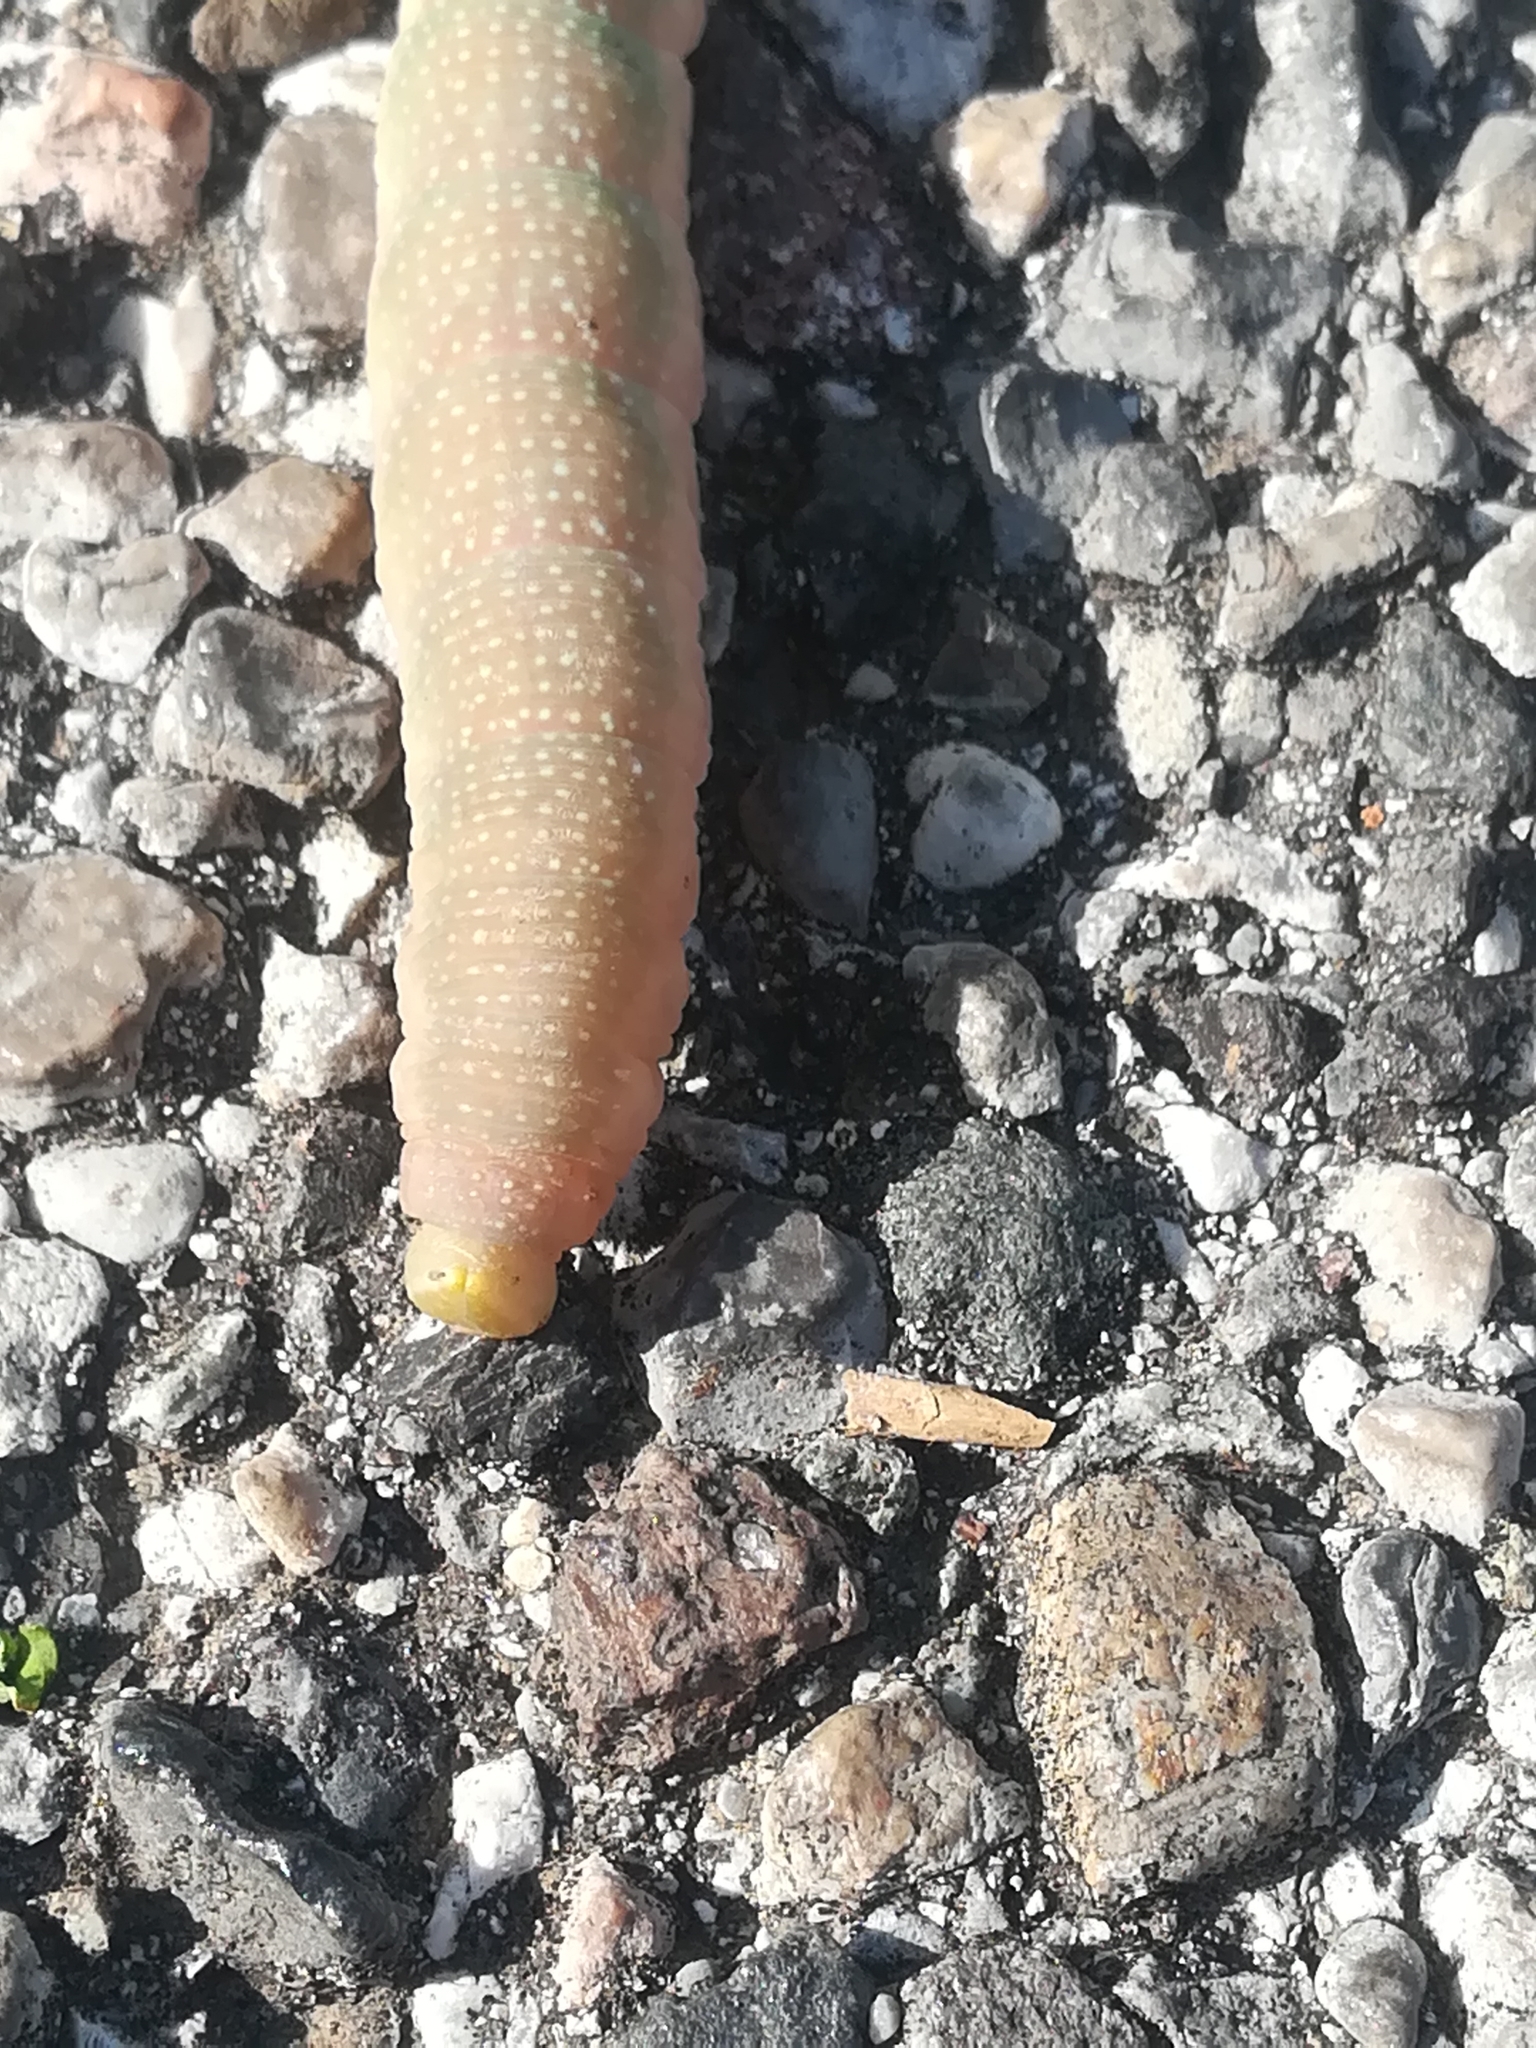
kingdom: Animalia
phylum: Arthropoda
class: Insecta
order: Lepidoptera
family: Sphingidae
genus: Mimas
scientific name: Mimas tiliae
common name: Lime hawk-moth
